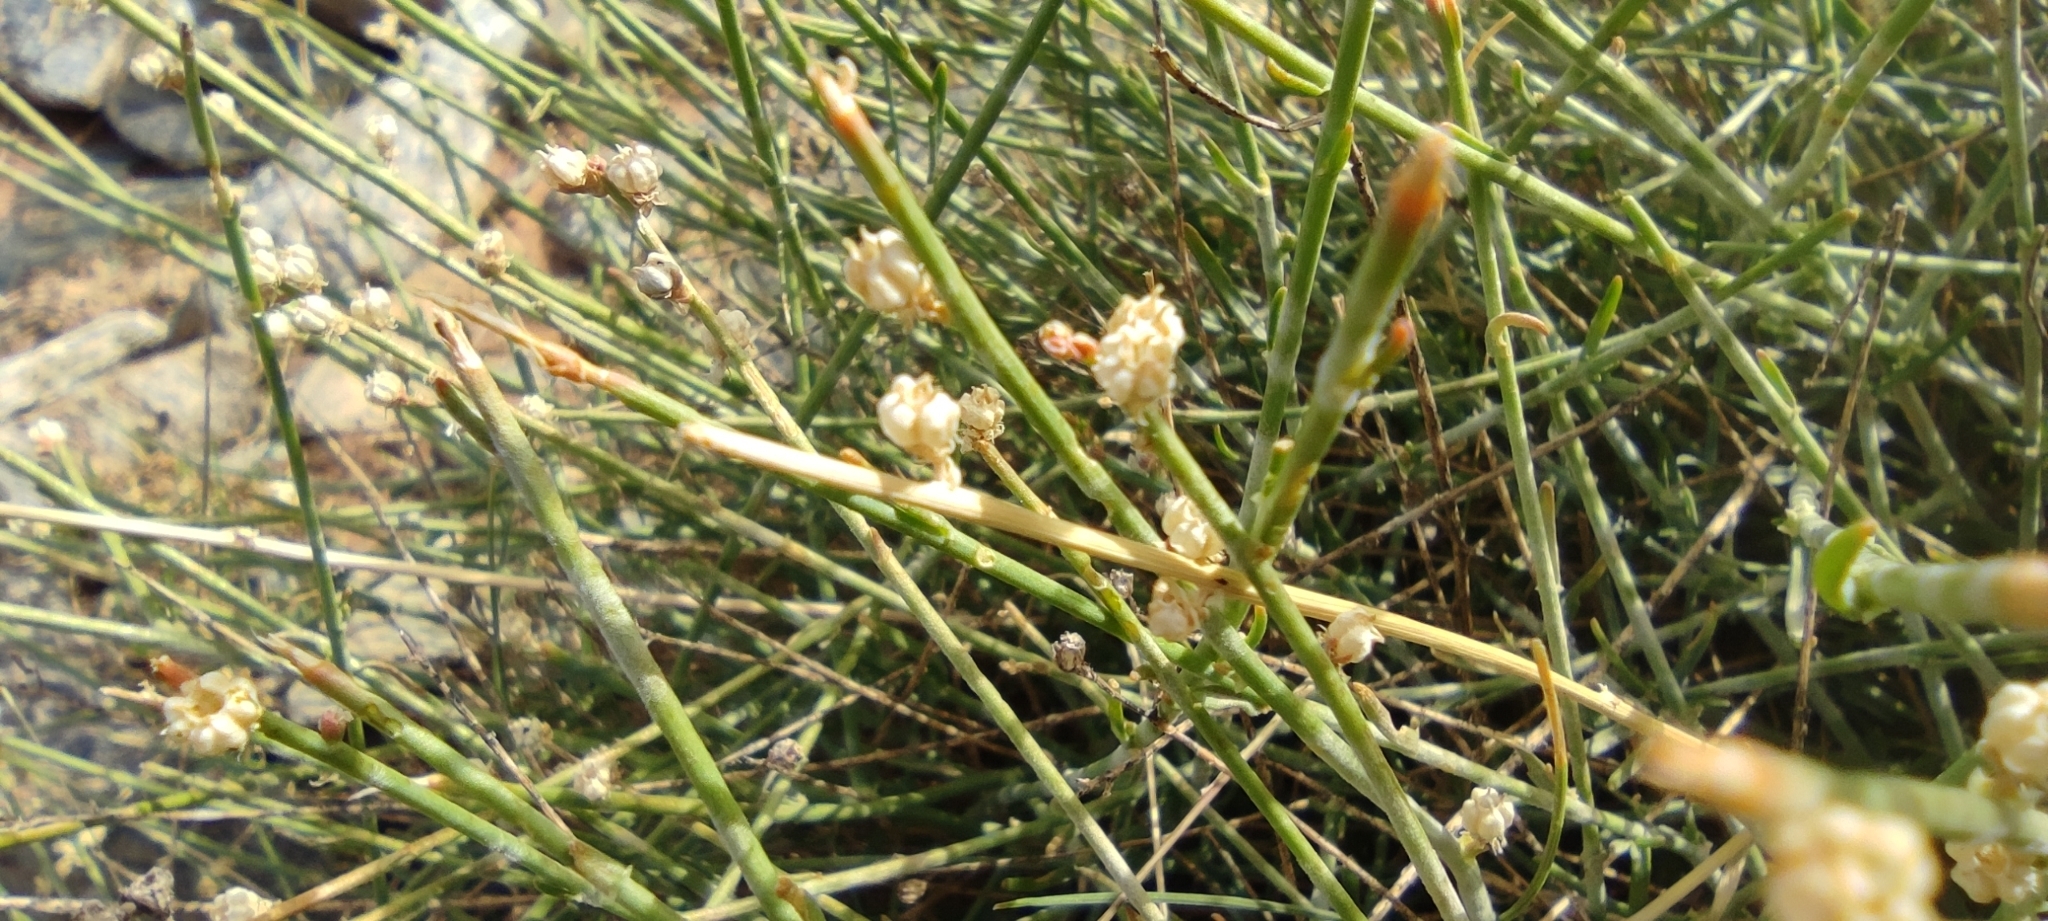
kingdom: Plantae
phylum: Tracheophyta
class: Magnoliopsida
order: Brassicales
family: Resedaceae
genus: Reseda
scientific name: Reseda complicata
